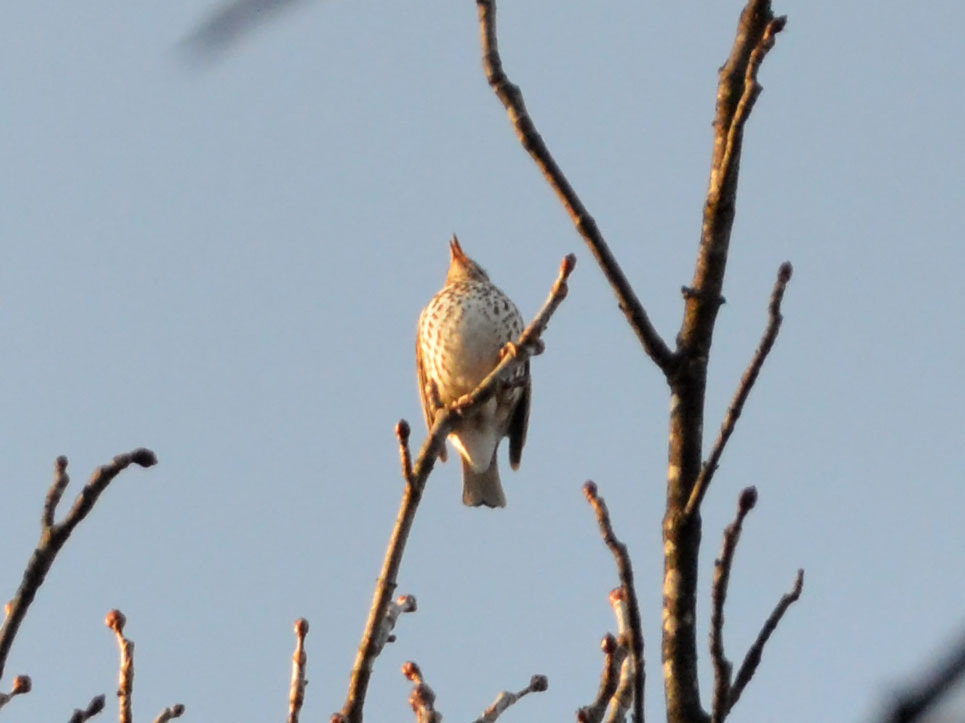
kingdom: Animalia
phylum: Chordata
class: Aves
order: Passeriformes
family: Turdidae
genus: Turdus
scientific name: Turdus philomelos
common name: Song thrush
